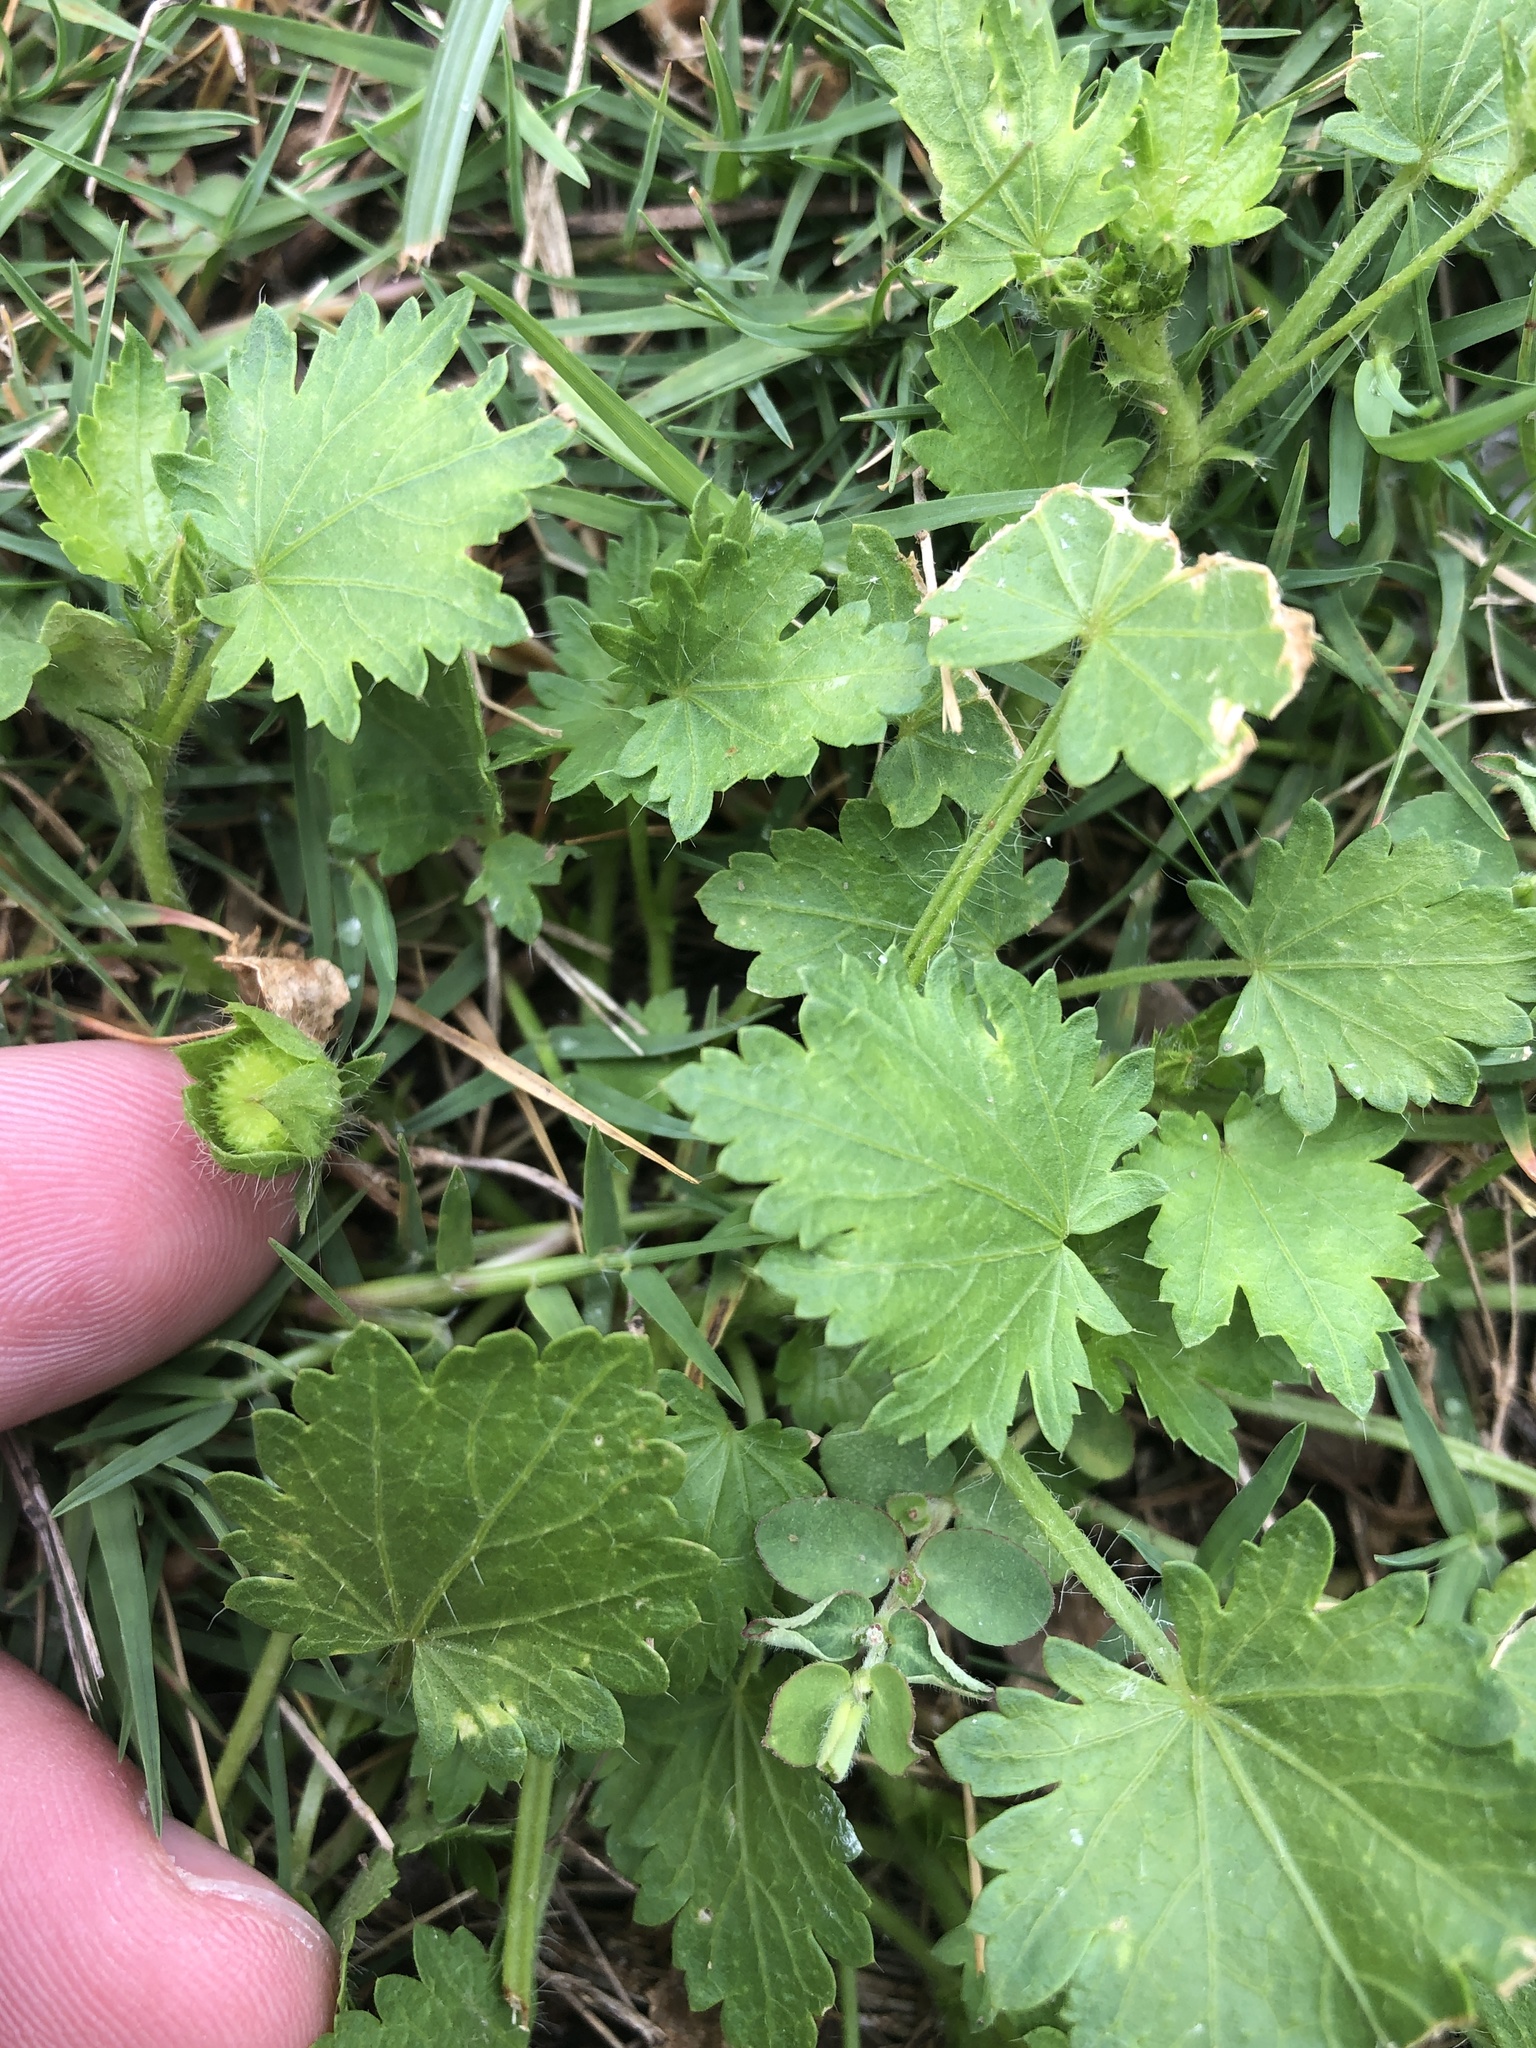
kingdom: Plantae
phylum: Tracheophyta
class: Magnoliopsida
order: Malvales
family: Malvaceae
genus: Modiola
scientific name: Modiola caroliniana
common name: Carolina bristlemallow
